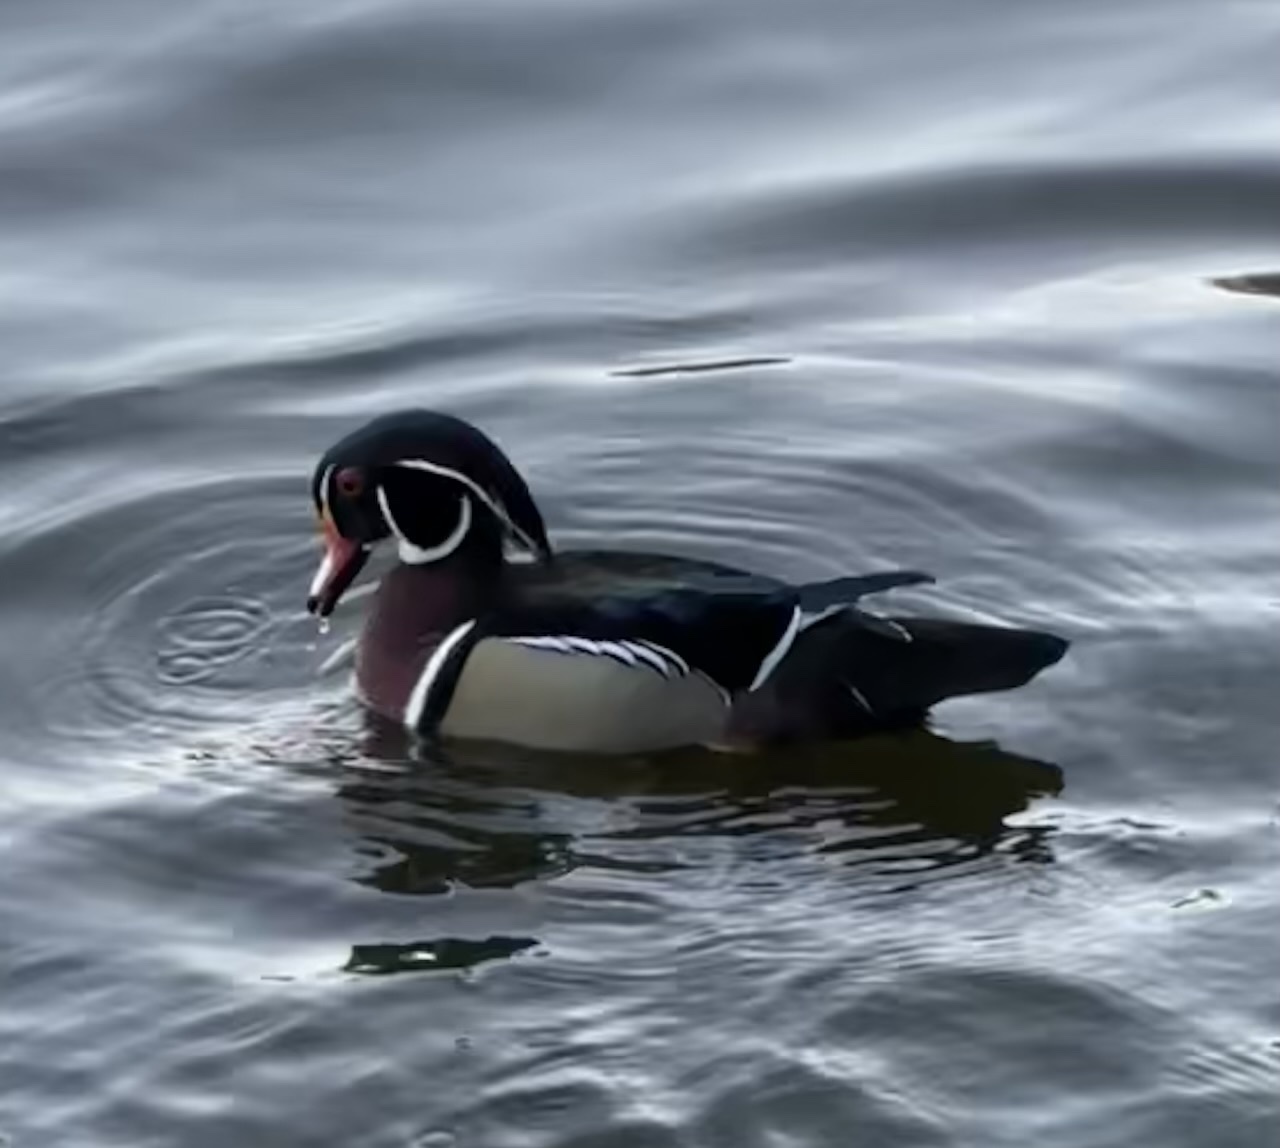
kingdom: Animalia
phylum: Chordata
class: Aves
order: Anseriformes
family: Anatidae
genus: Aix
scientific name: Aix sponsa
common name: Wood duck
